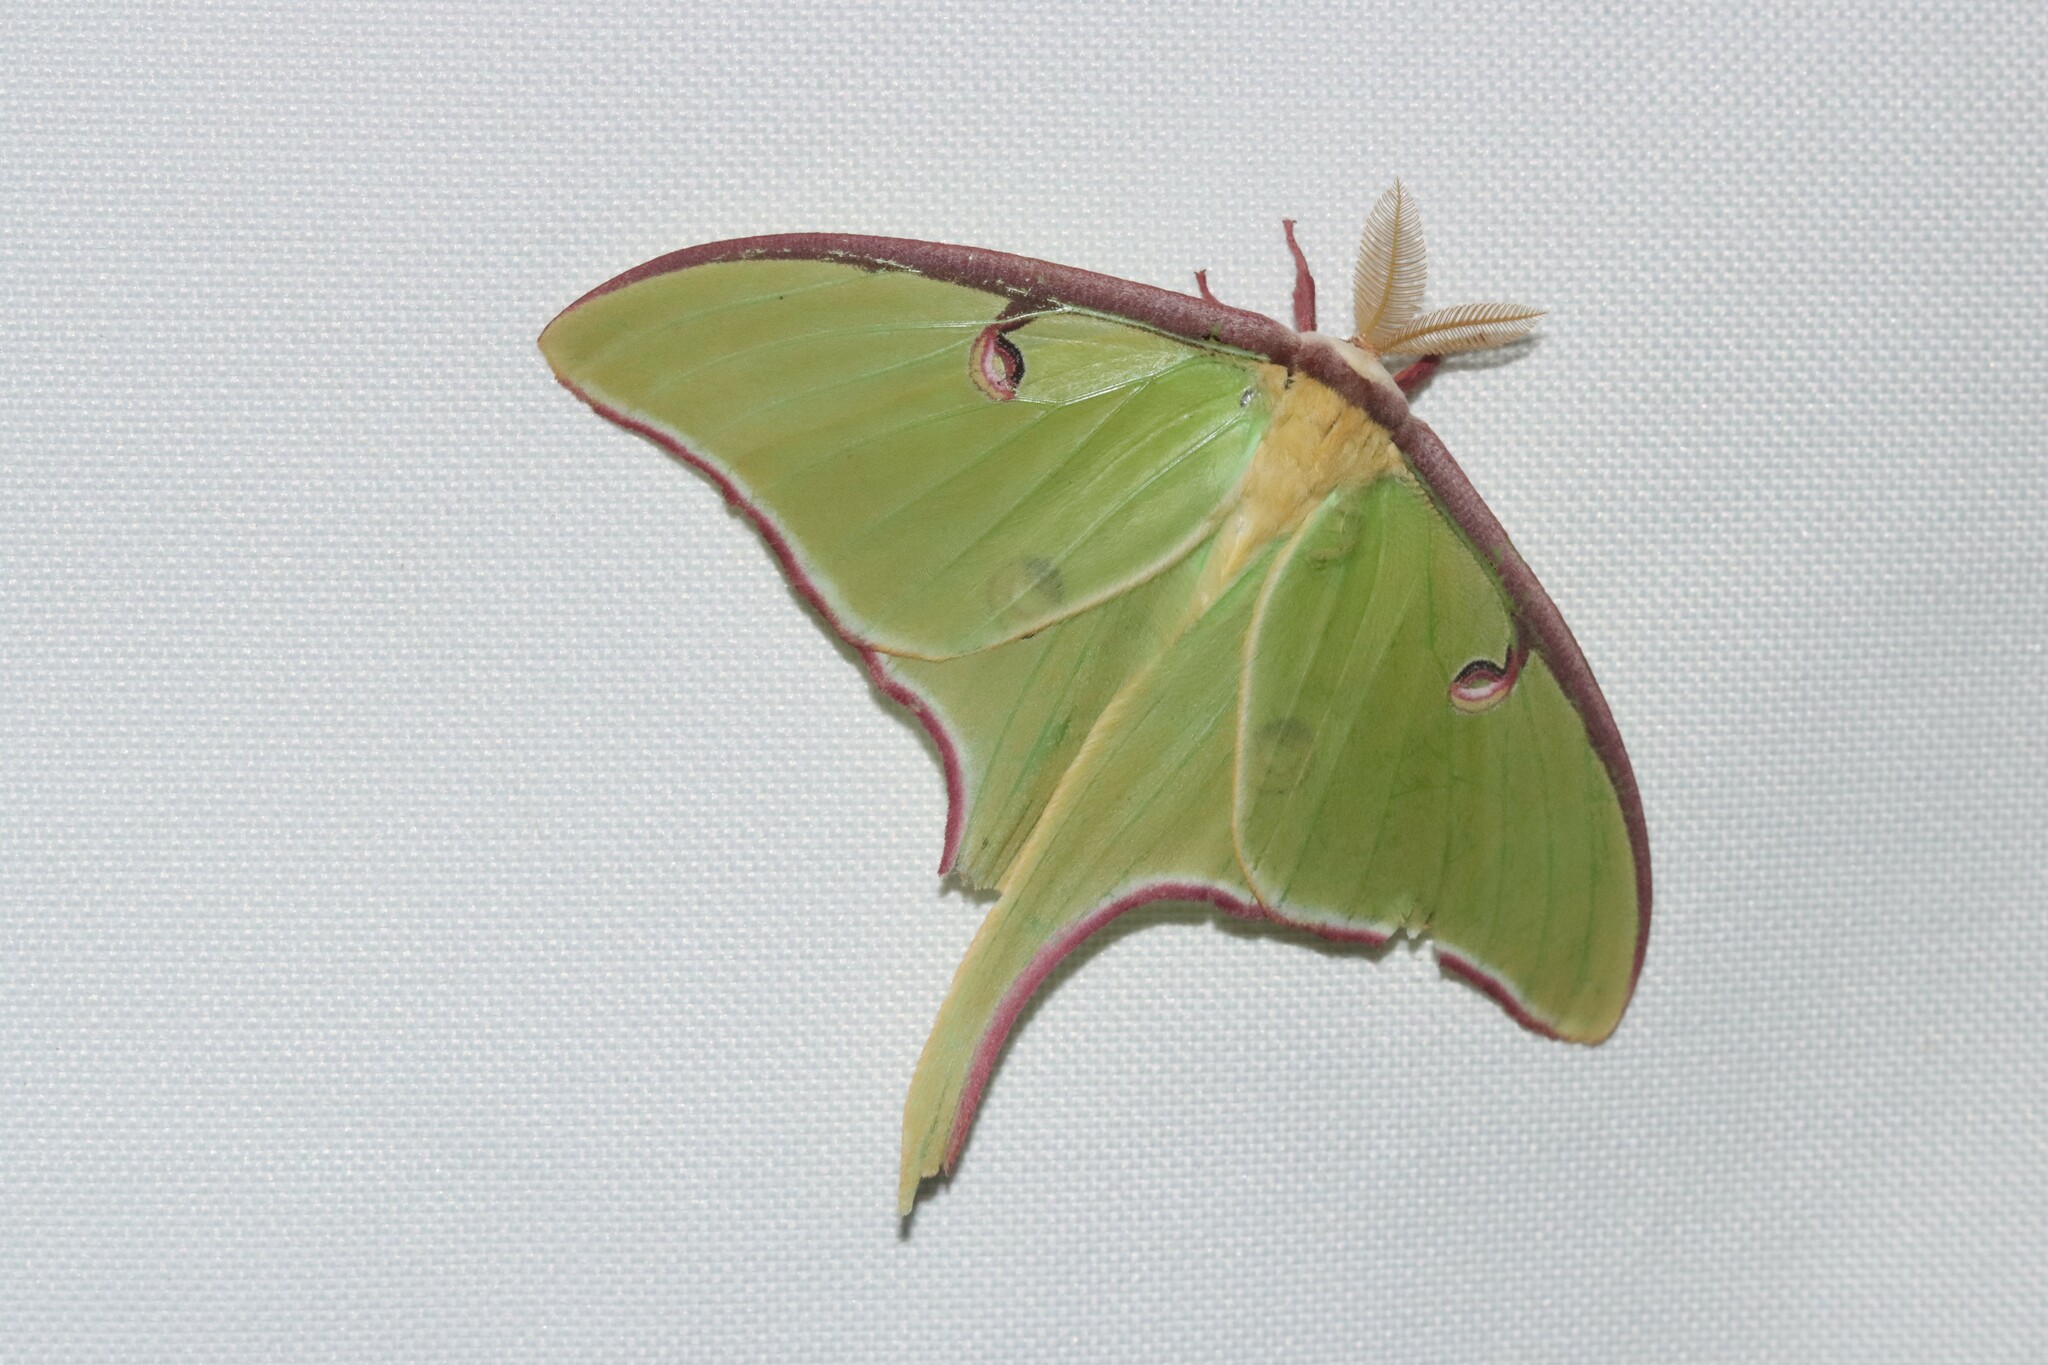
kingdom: Animalia
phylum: Arthropoda
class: Insecta
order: Lepidoptera
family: Saturniidae
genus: Actias
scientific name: Actias luna
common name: Luna moth
